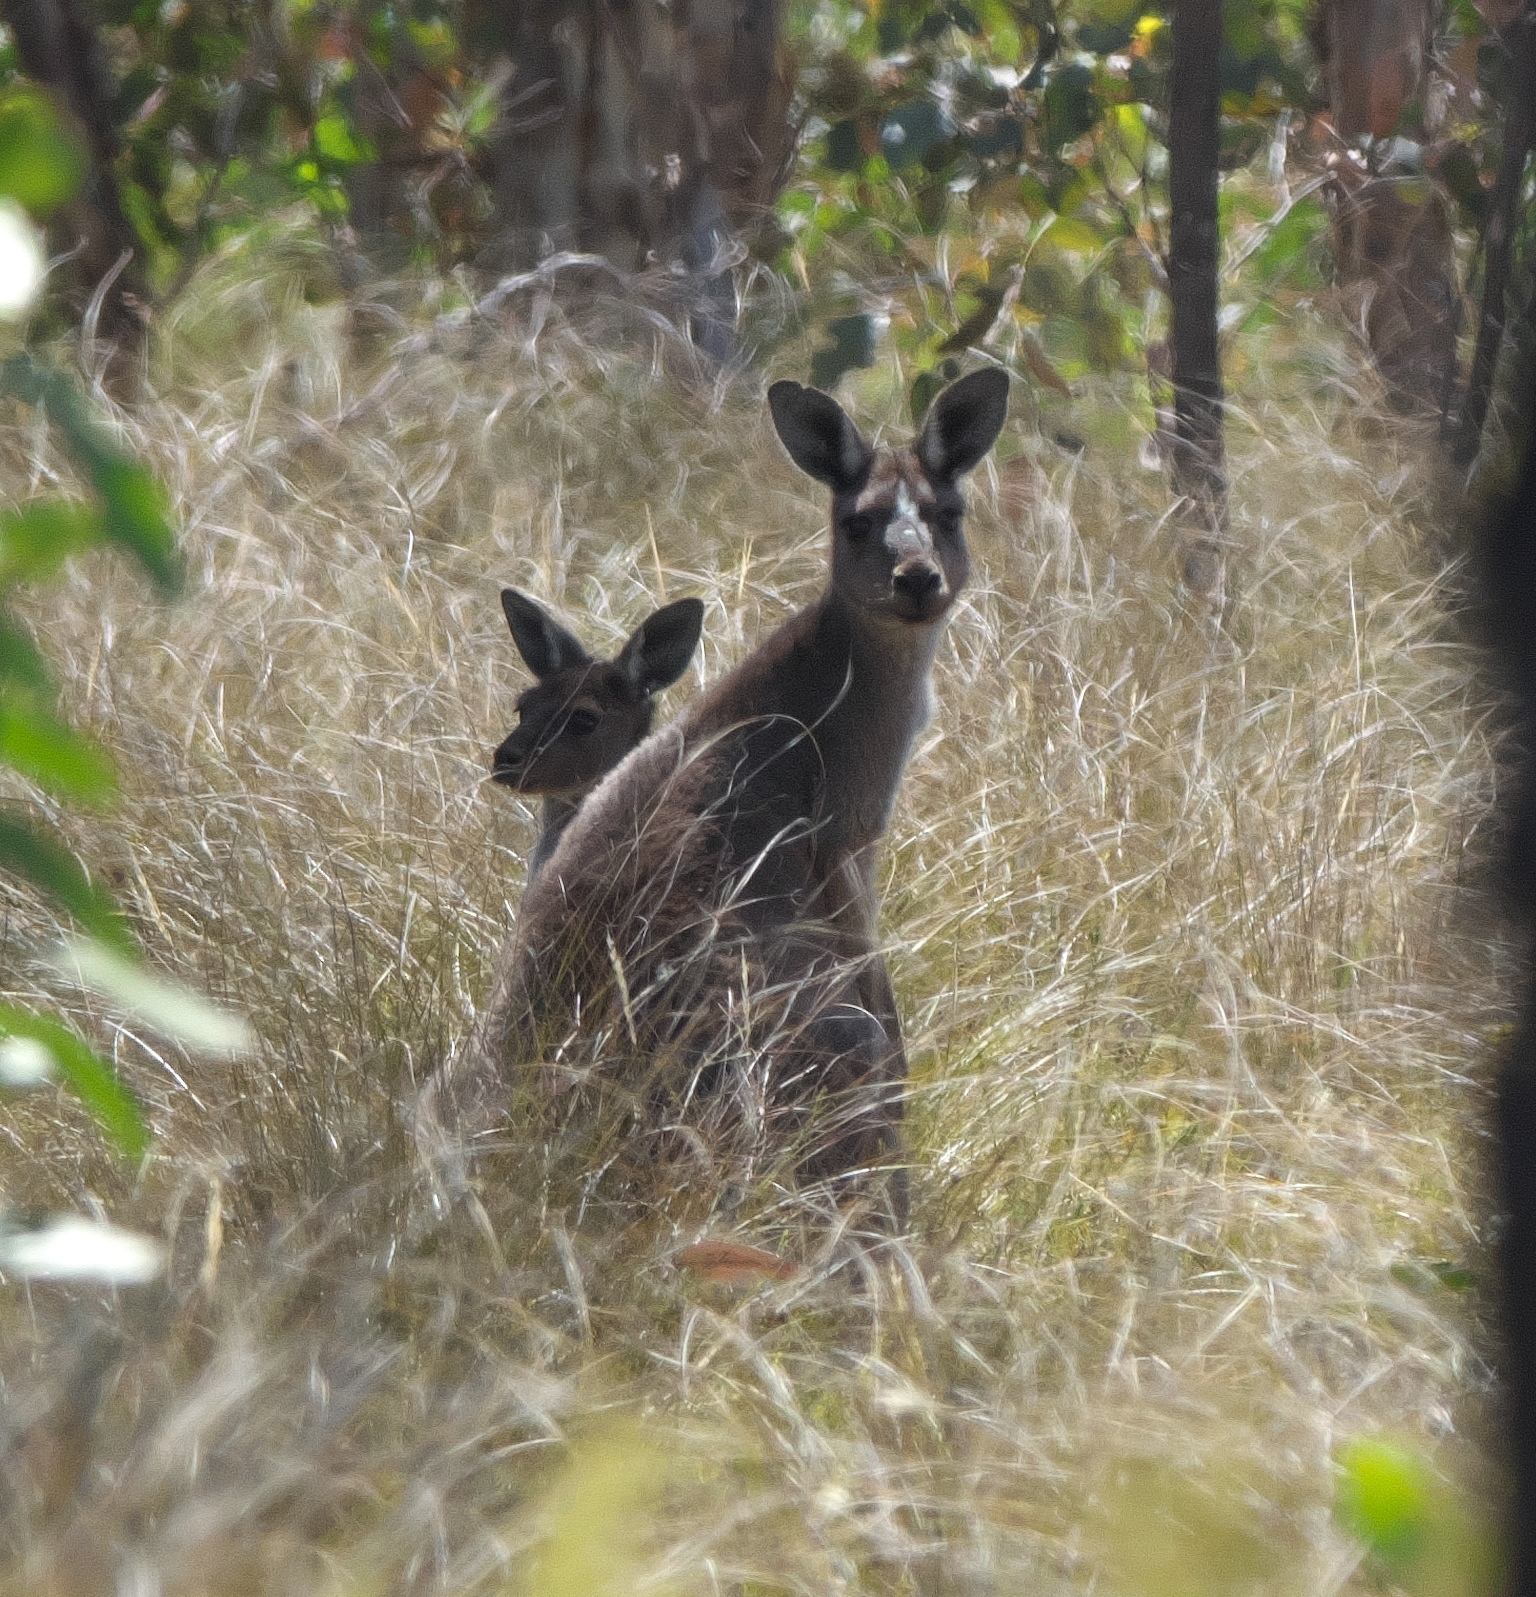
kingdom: Animalia
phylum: Chordata
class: Mammalia
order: Diprotodontia
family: Macropodidae
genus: Macropus
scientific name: Macropus fuliginosus
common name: Western grey kangaroo
